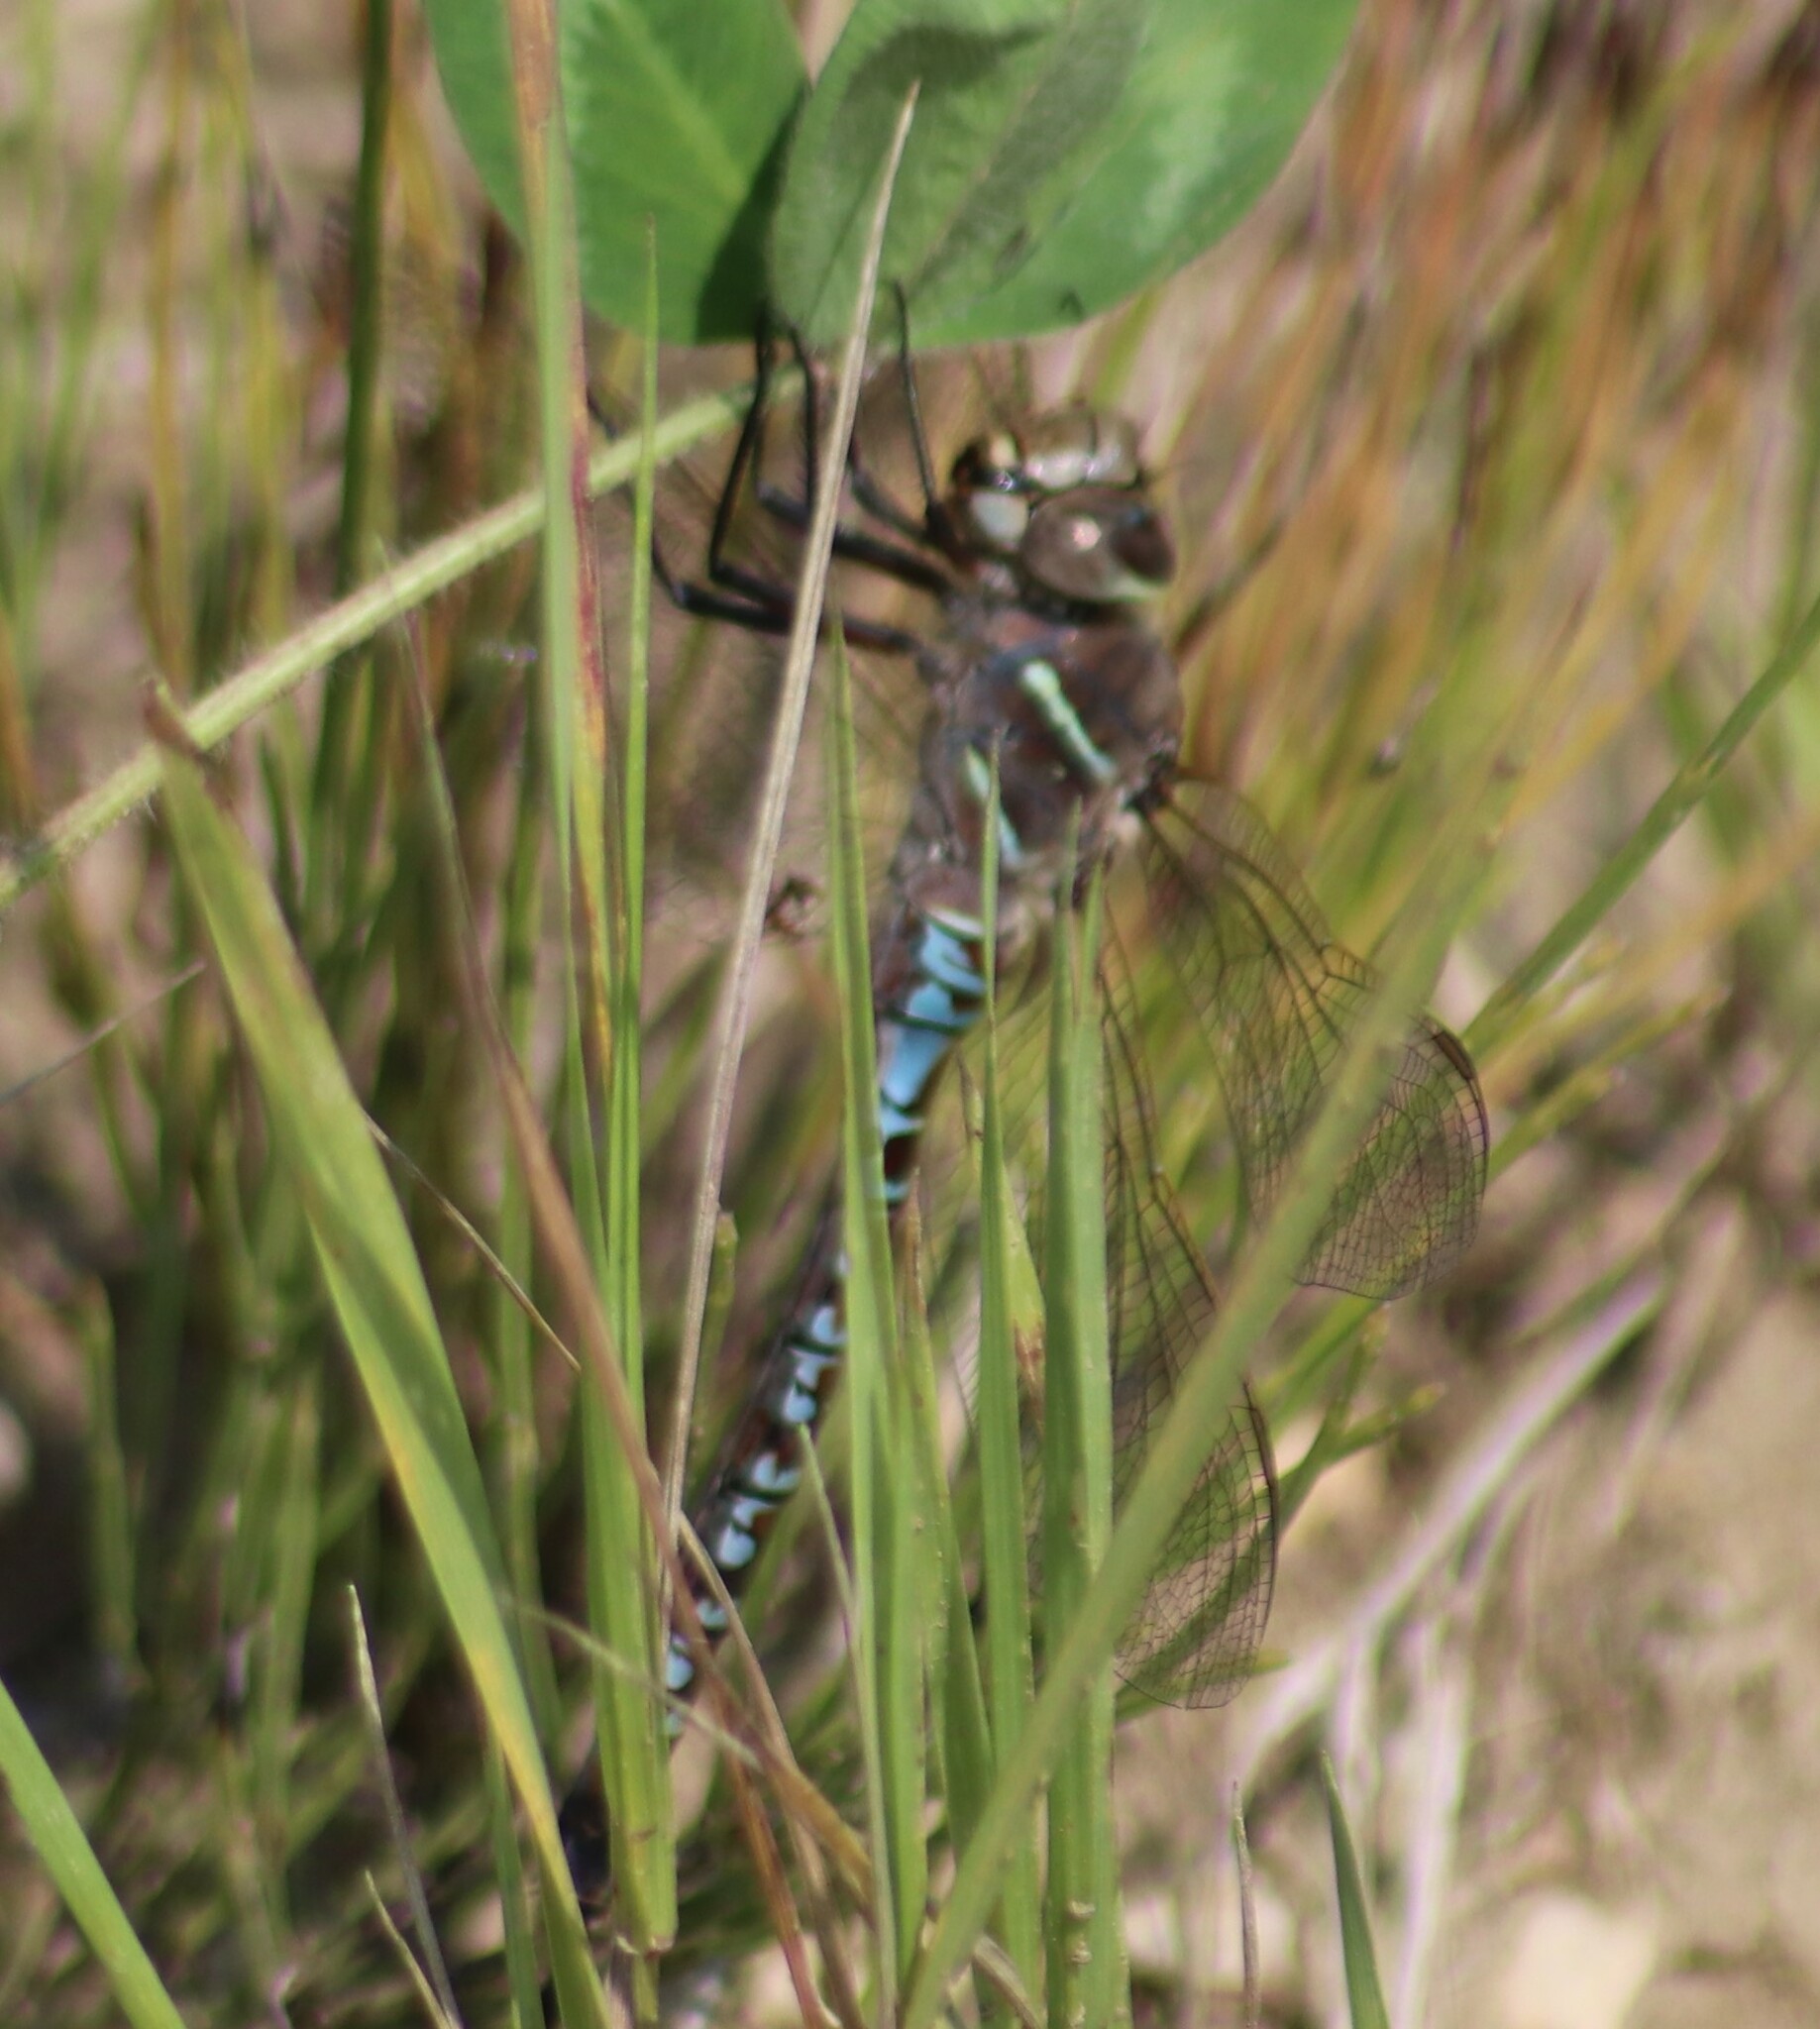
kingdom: Animalia
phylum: Arthropoda
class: Insecta
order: Odonata
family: Aeshnidae
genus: Aeshna
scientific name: Aeshna interrupta
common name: Variable darner
